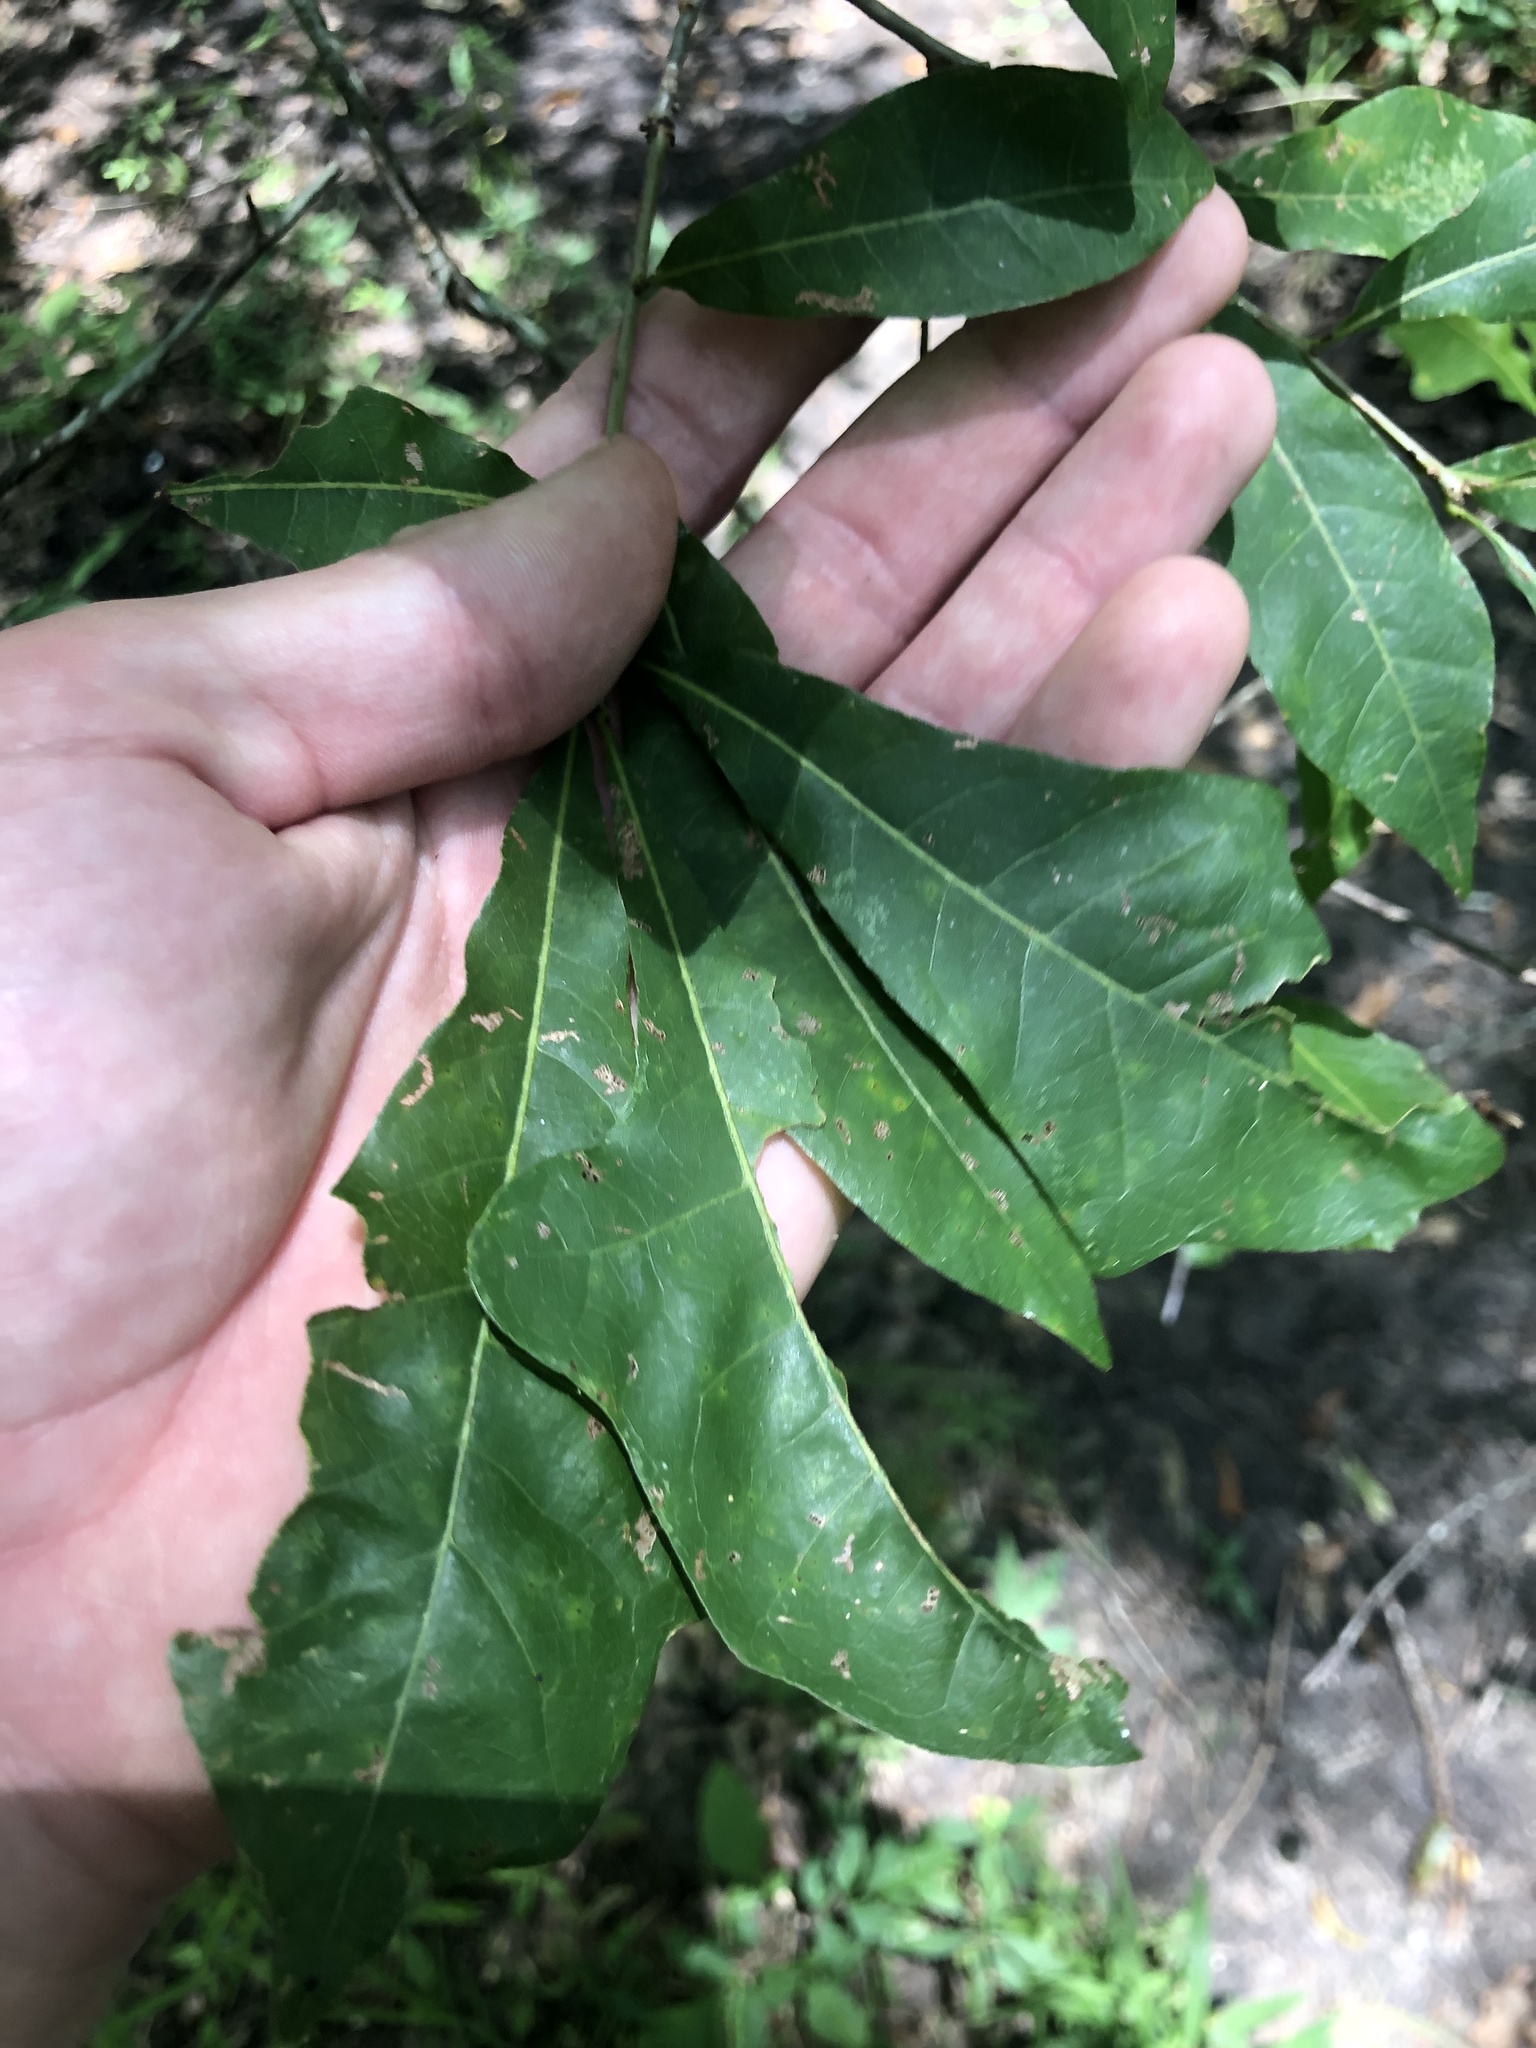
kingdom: Plantae
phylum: Tracheophyta
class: Magnoliopsida
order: Fagales
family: Fagaceae
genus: Quercus
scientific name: Quercus sinuata
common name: Durand oak
